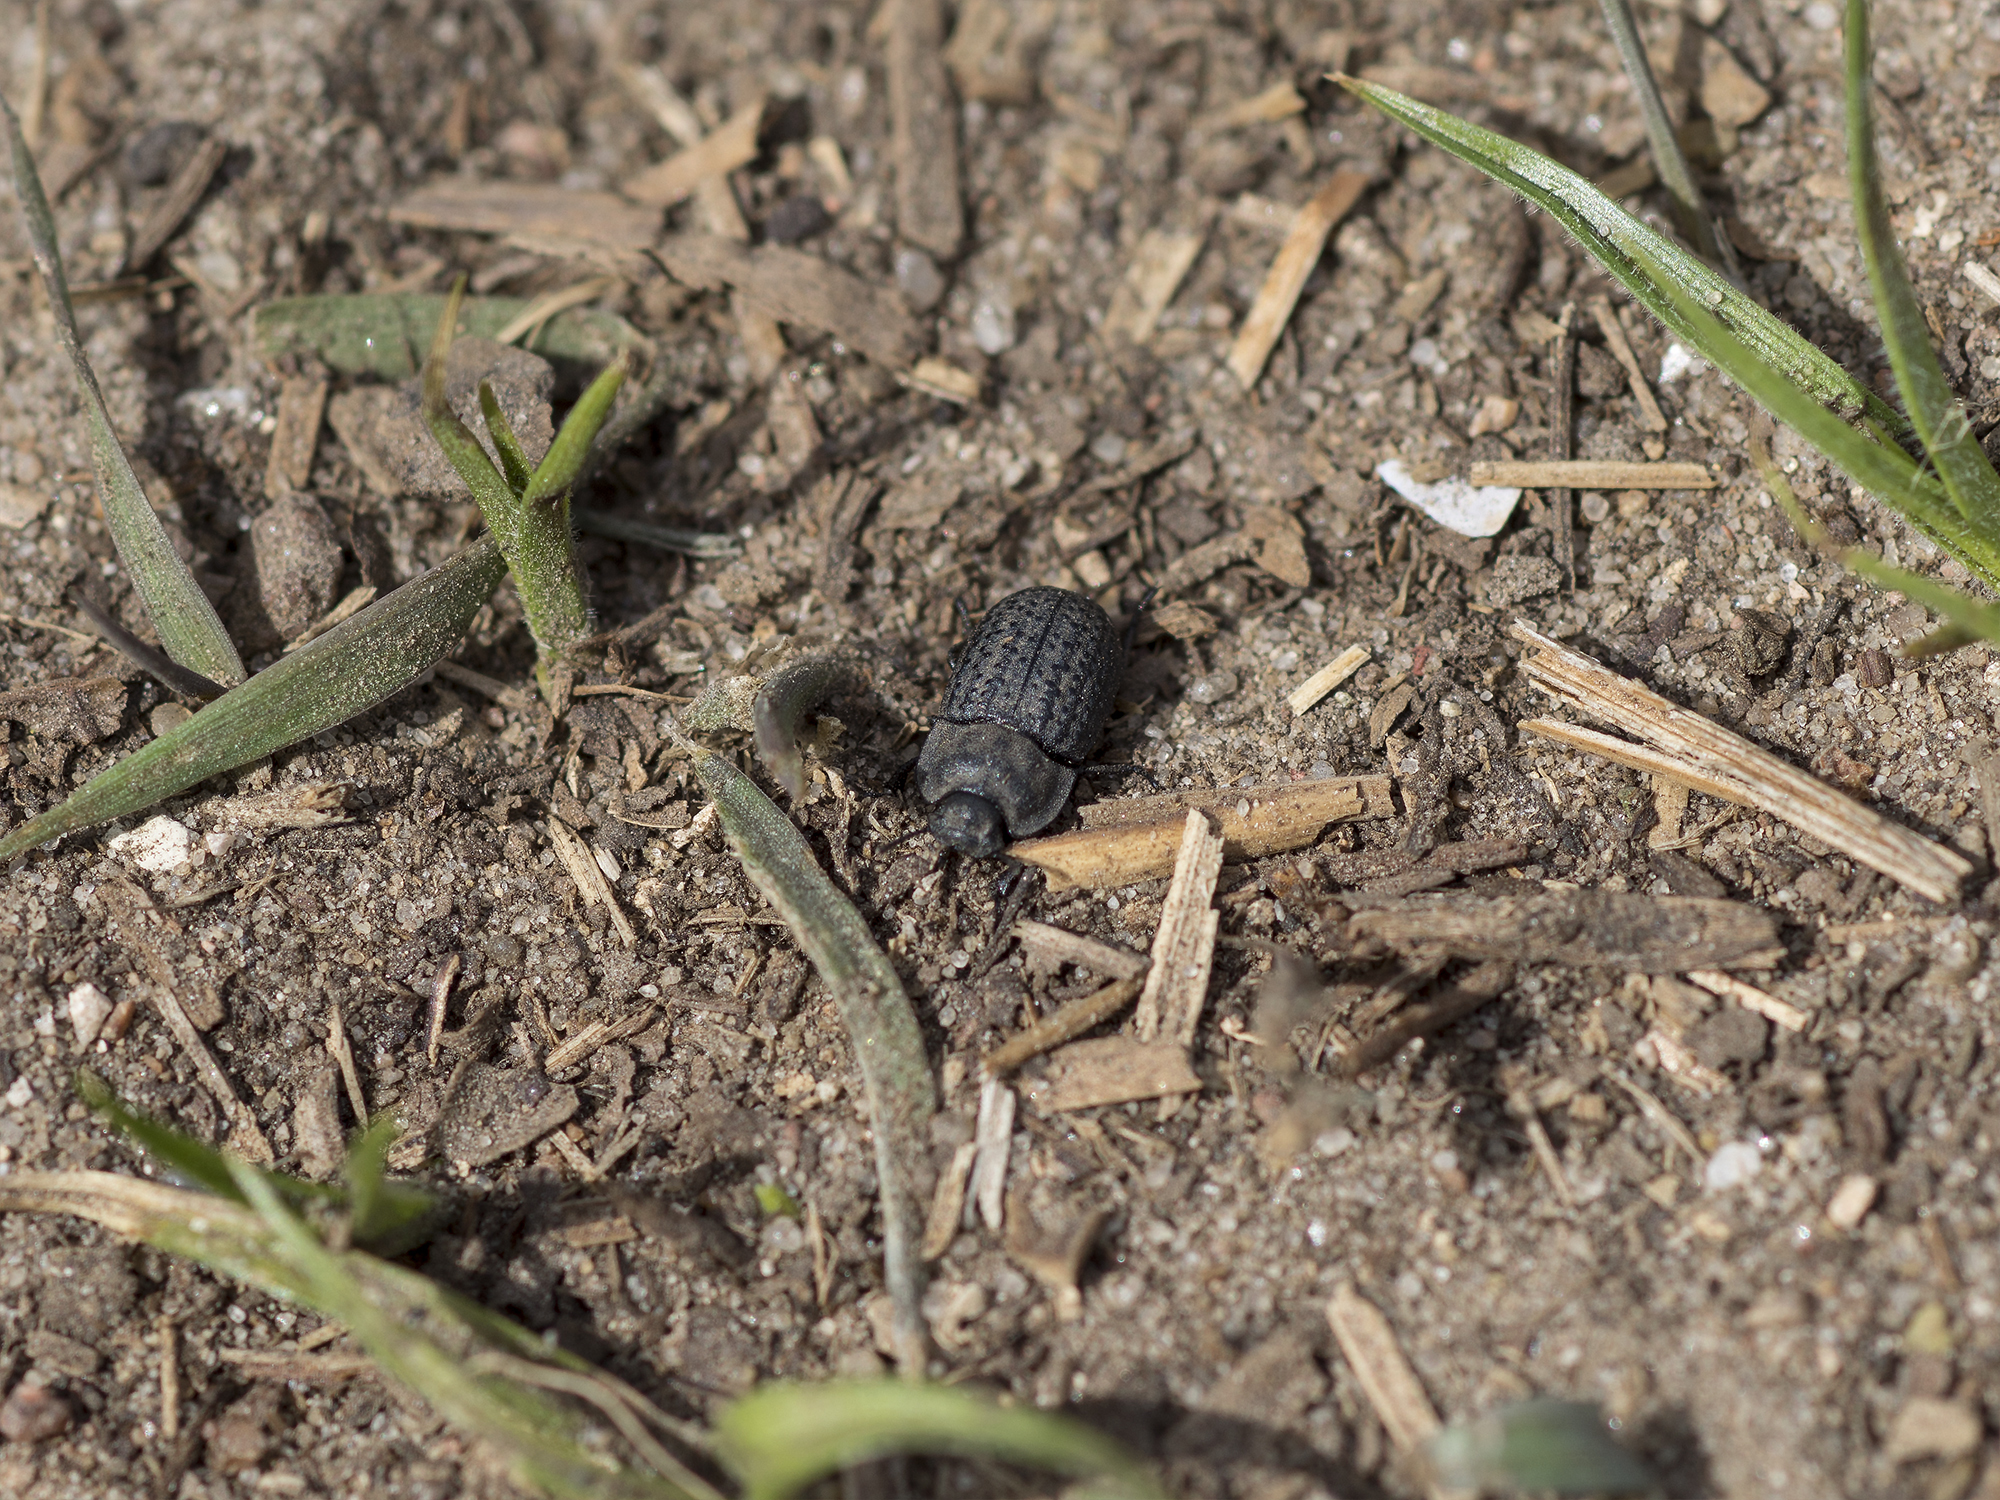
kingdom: Animalia
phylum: Arthropoda
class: Insecta
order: Coleoptera
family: Tenebrionidae
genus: Opatrum
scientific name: Opatrum sabulosum
